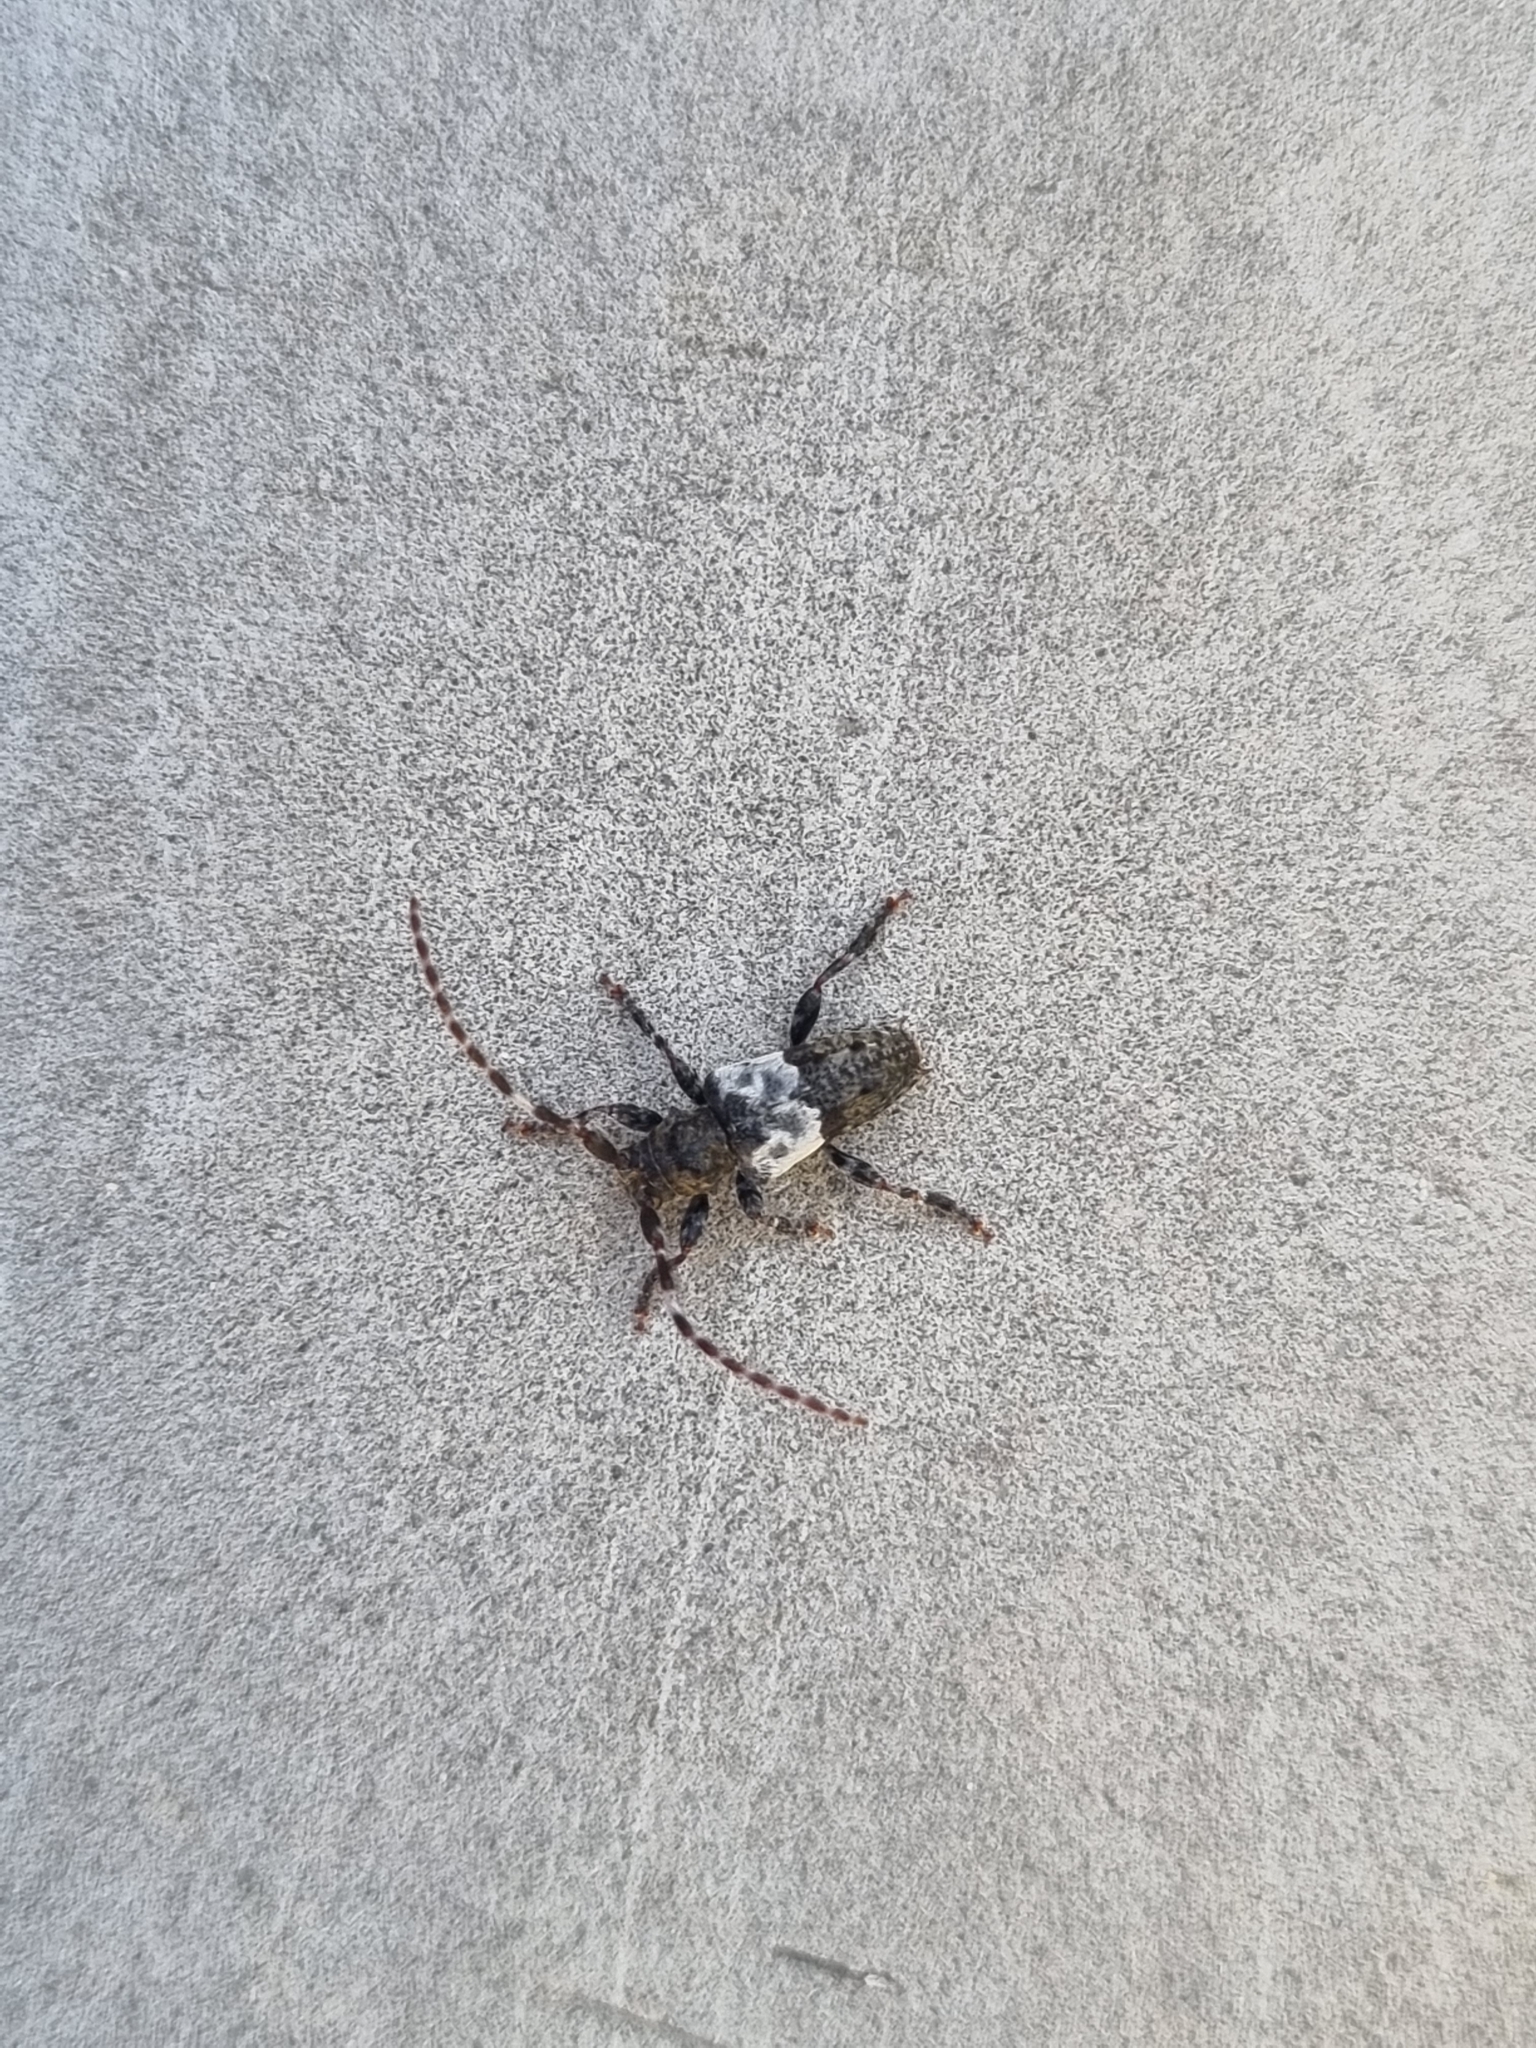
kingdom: Animalia
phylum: Arthropoda
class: Insecta
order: Coleoptera
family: Cerambycidae
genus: Pogonocherus
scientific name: Pogonocherus hispidulus
